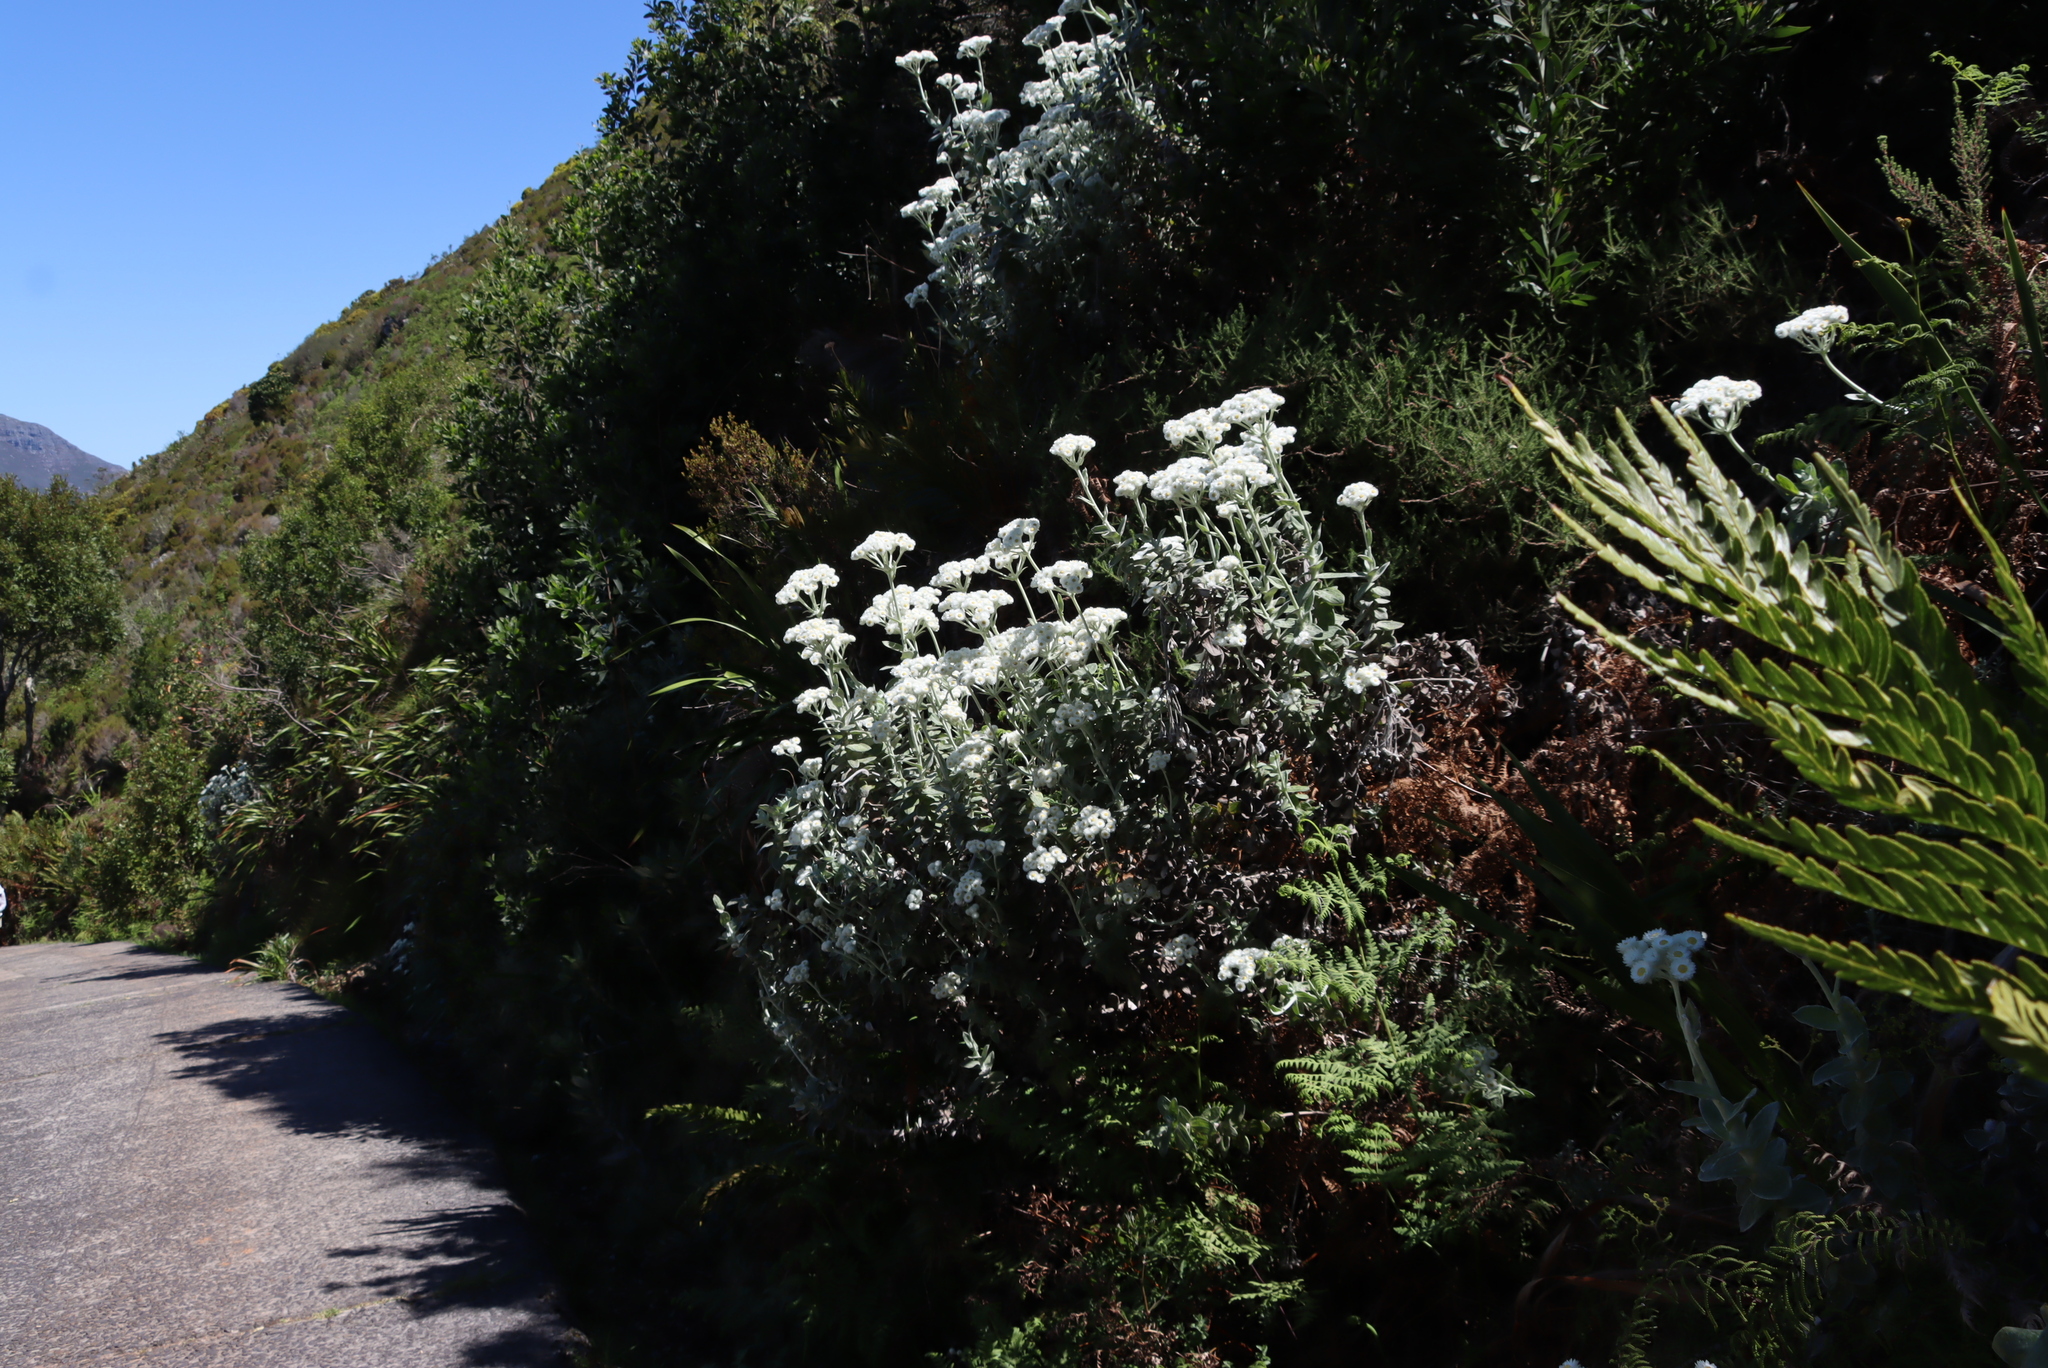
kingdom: Plantae
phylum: Tracheophyta
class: Magnoliopsida
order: Asterales
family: Asteraceae
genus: Helichrysum
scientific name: Helichrysum fruticans
